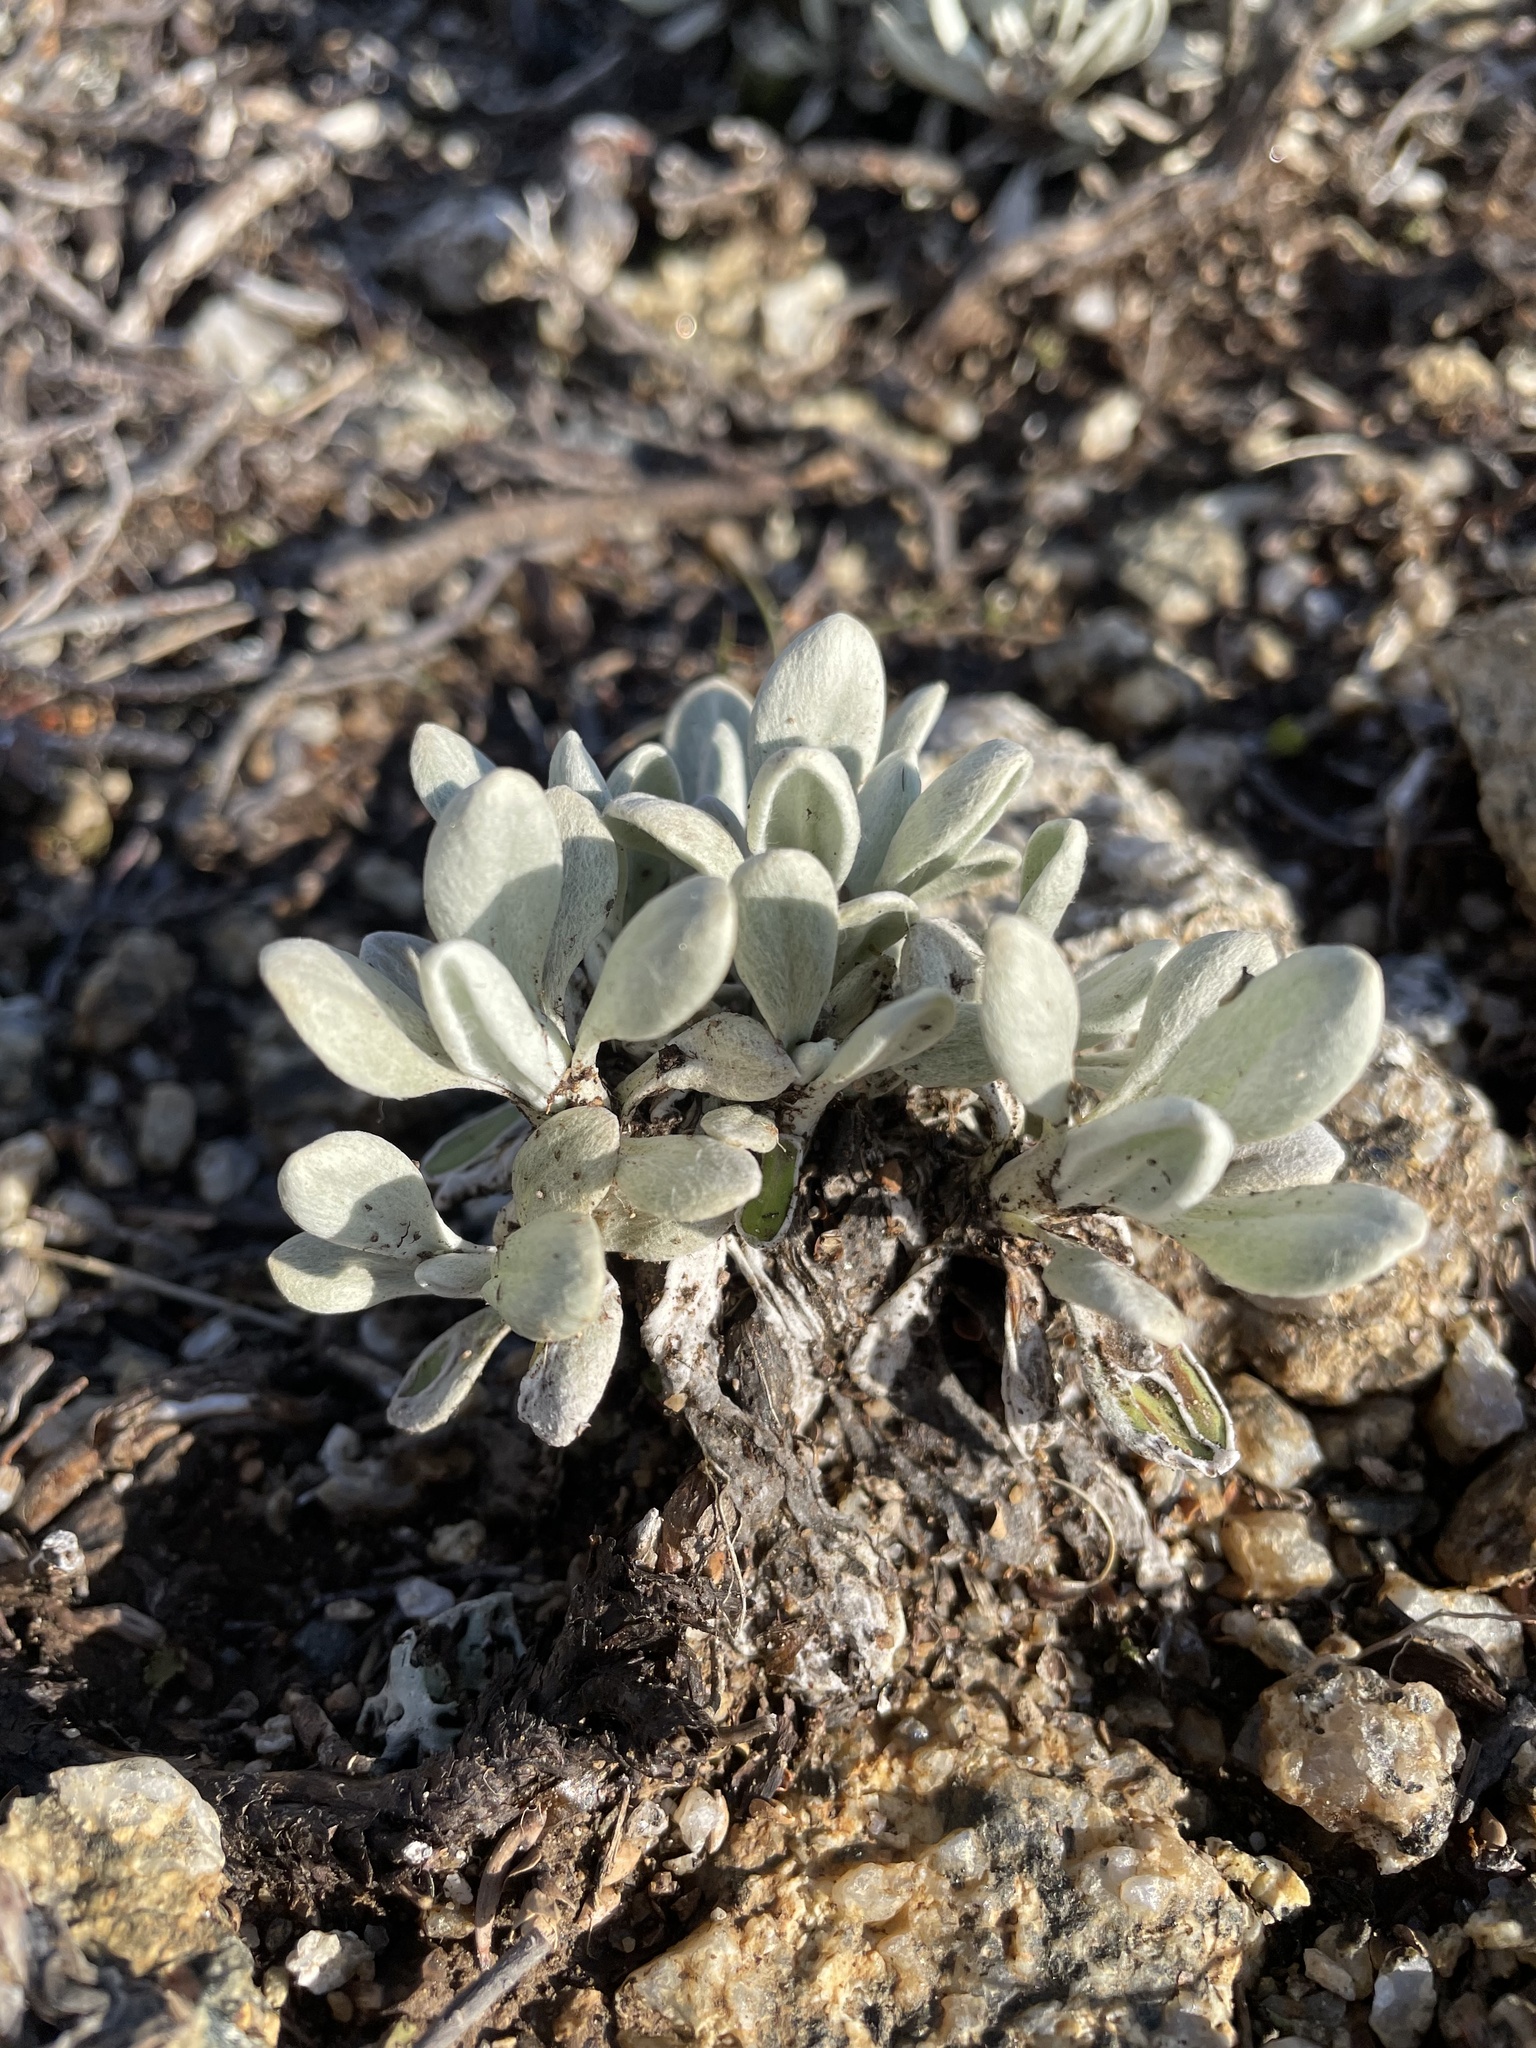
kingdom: Plantae
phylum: Tracheophyta
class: Magnoliopsida
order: Asterales
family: Asteraceae
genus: Leucochrysum
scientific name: Leucochrysum alpinum
